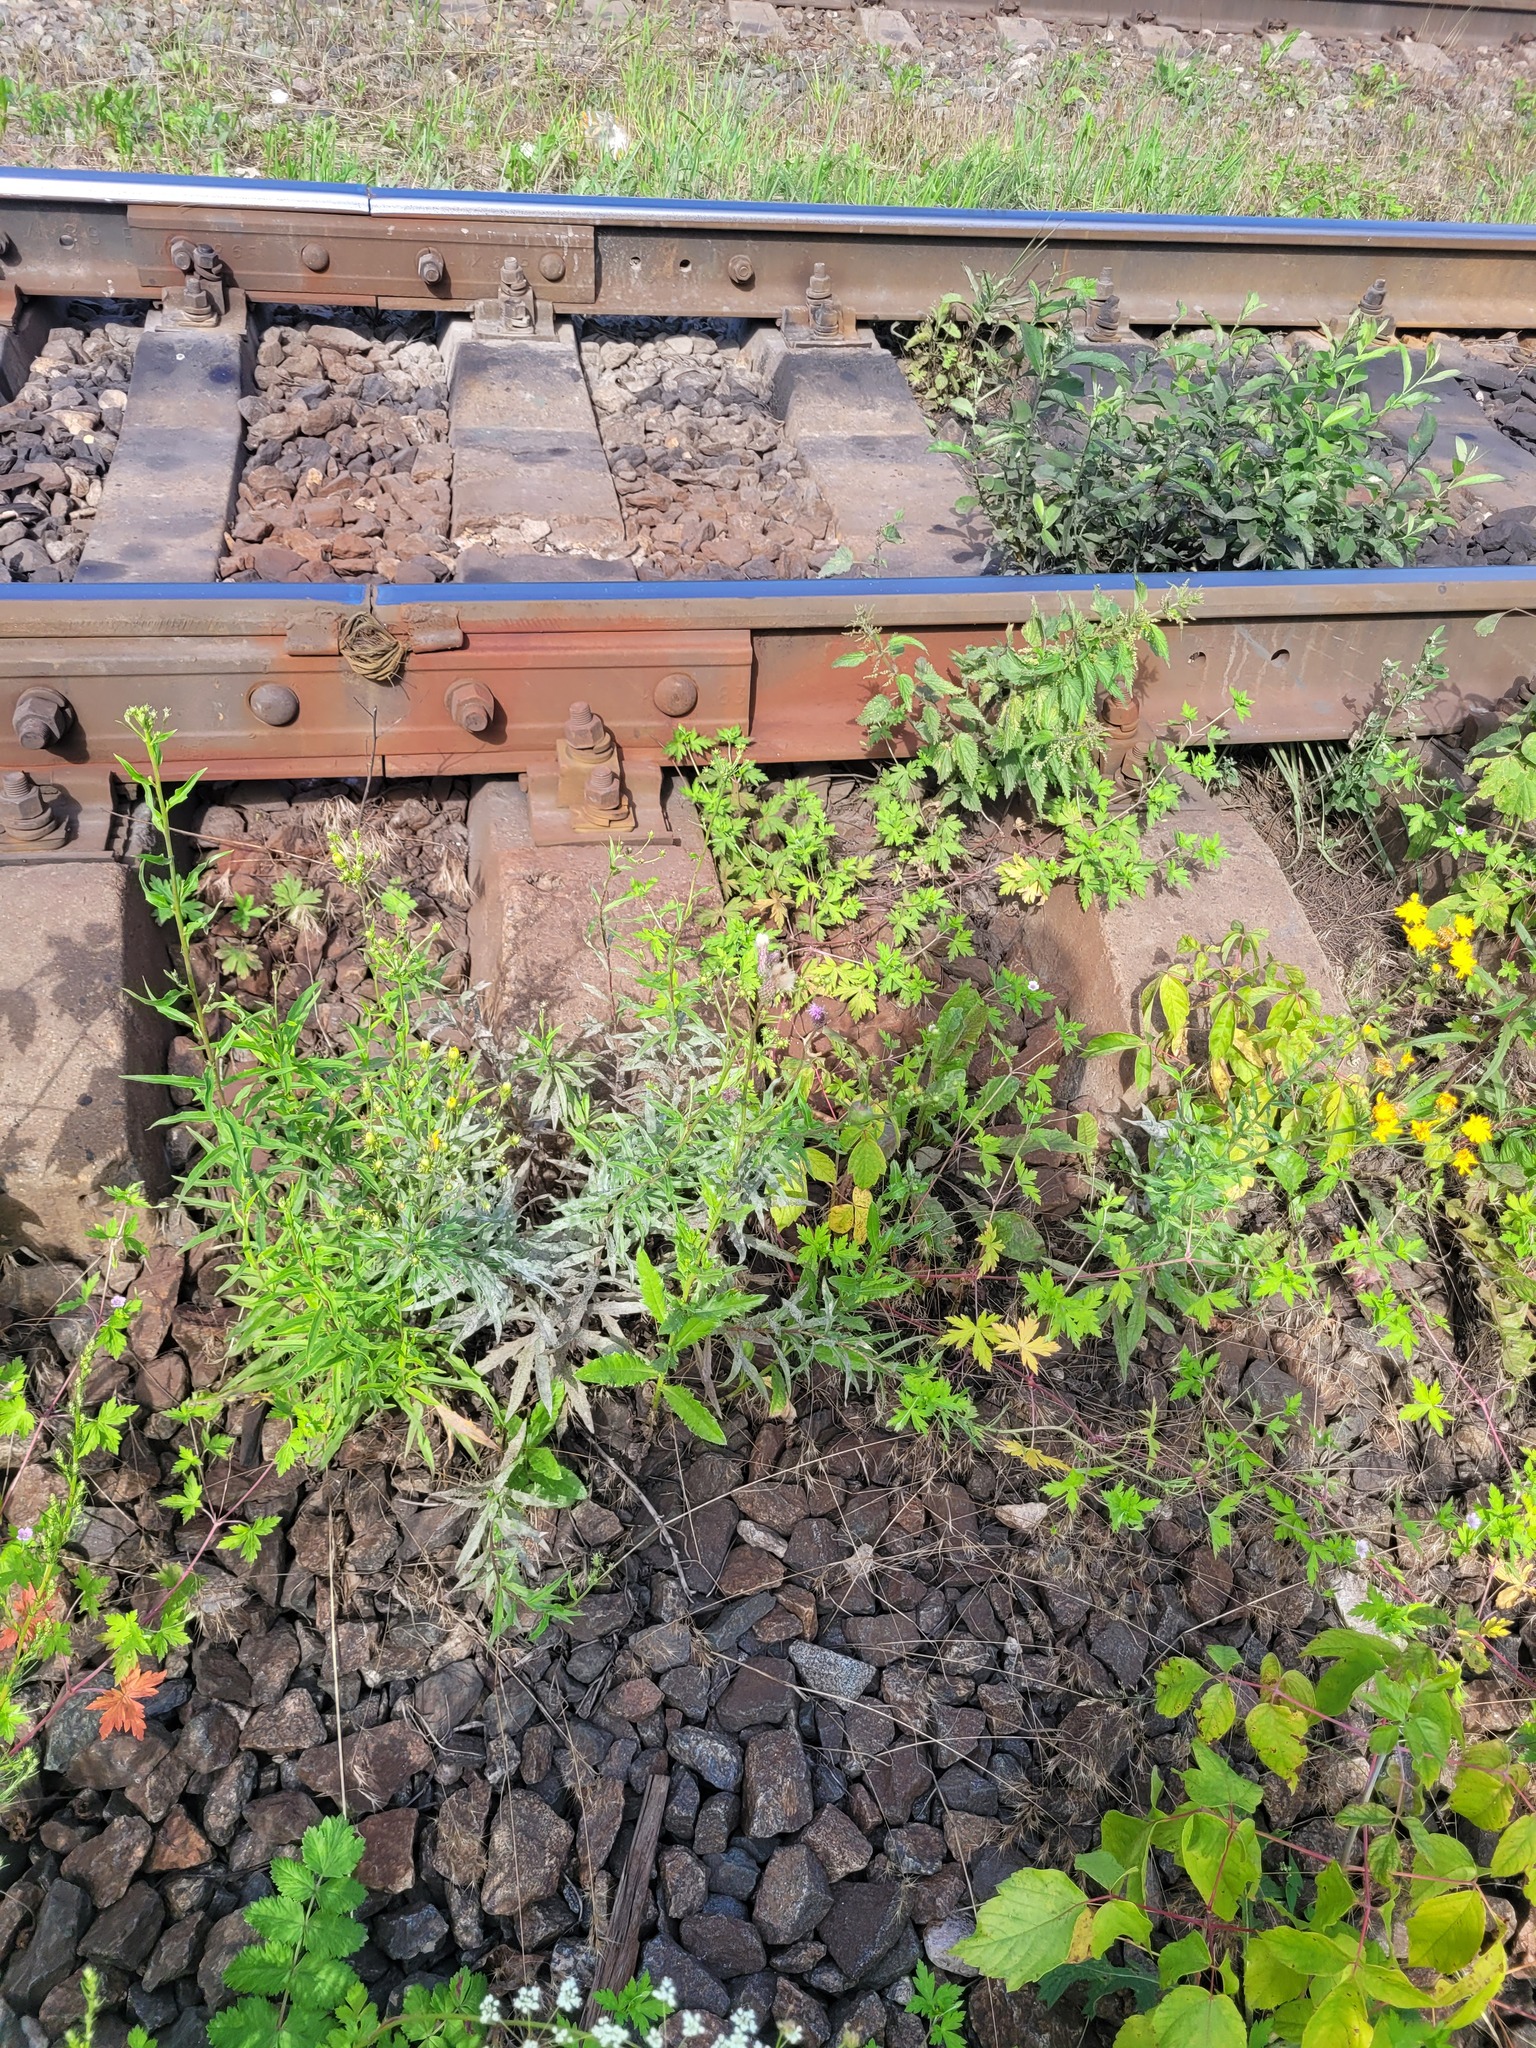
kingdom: Plantae
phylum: Tracheophyta
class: Magnoliopsida
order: Geraniales
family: Geraniaceae
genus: Geranium
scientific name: Geranium sibiricum
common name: Siberian crane's-bill
